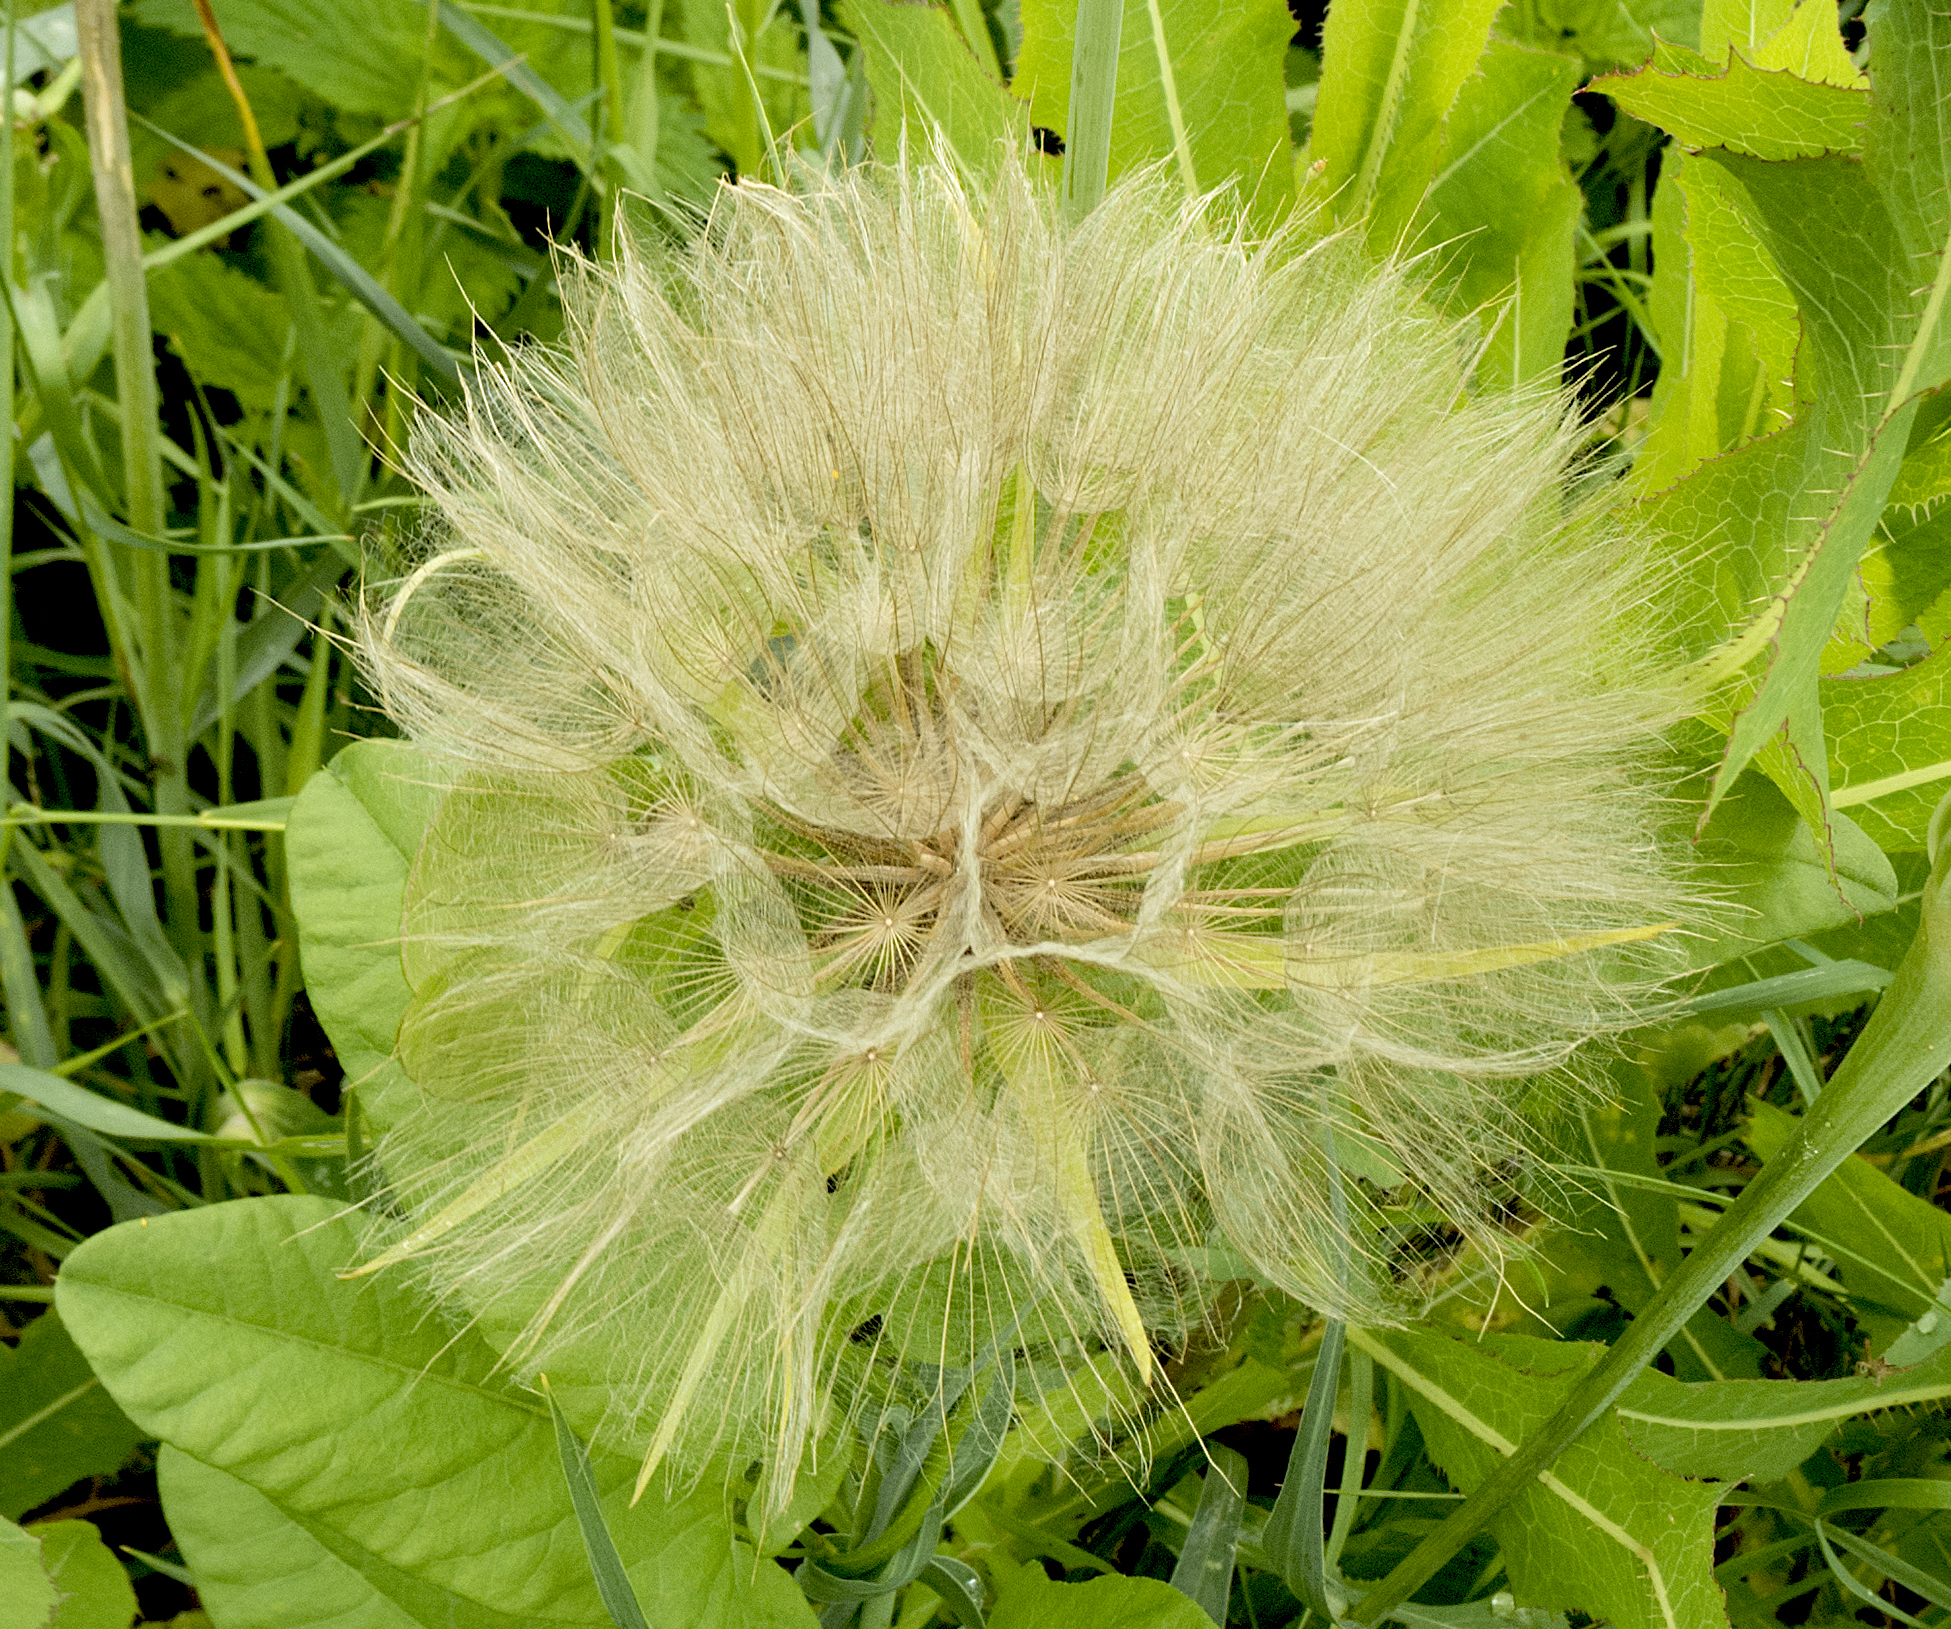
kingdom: Plantae
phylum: Tracheophyta
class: Magnoliopsida
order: Asterales
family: Asteraceae
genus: Tragopogon
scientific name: Tragopogon dubius
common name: Yellow salsify
